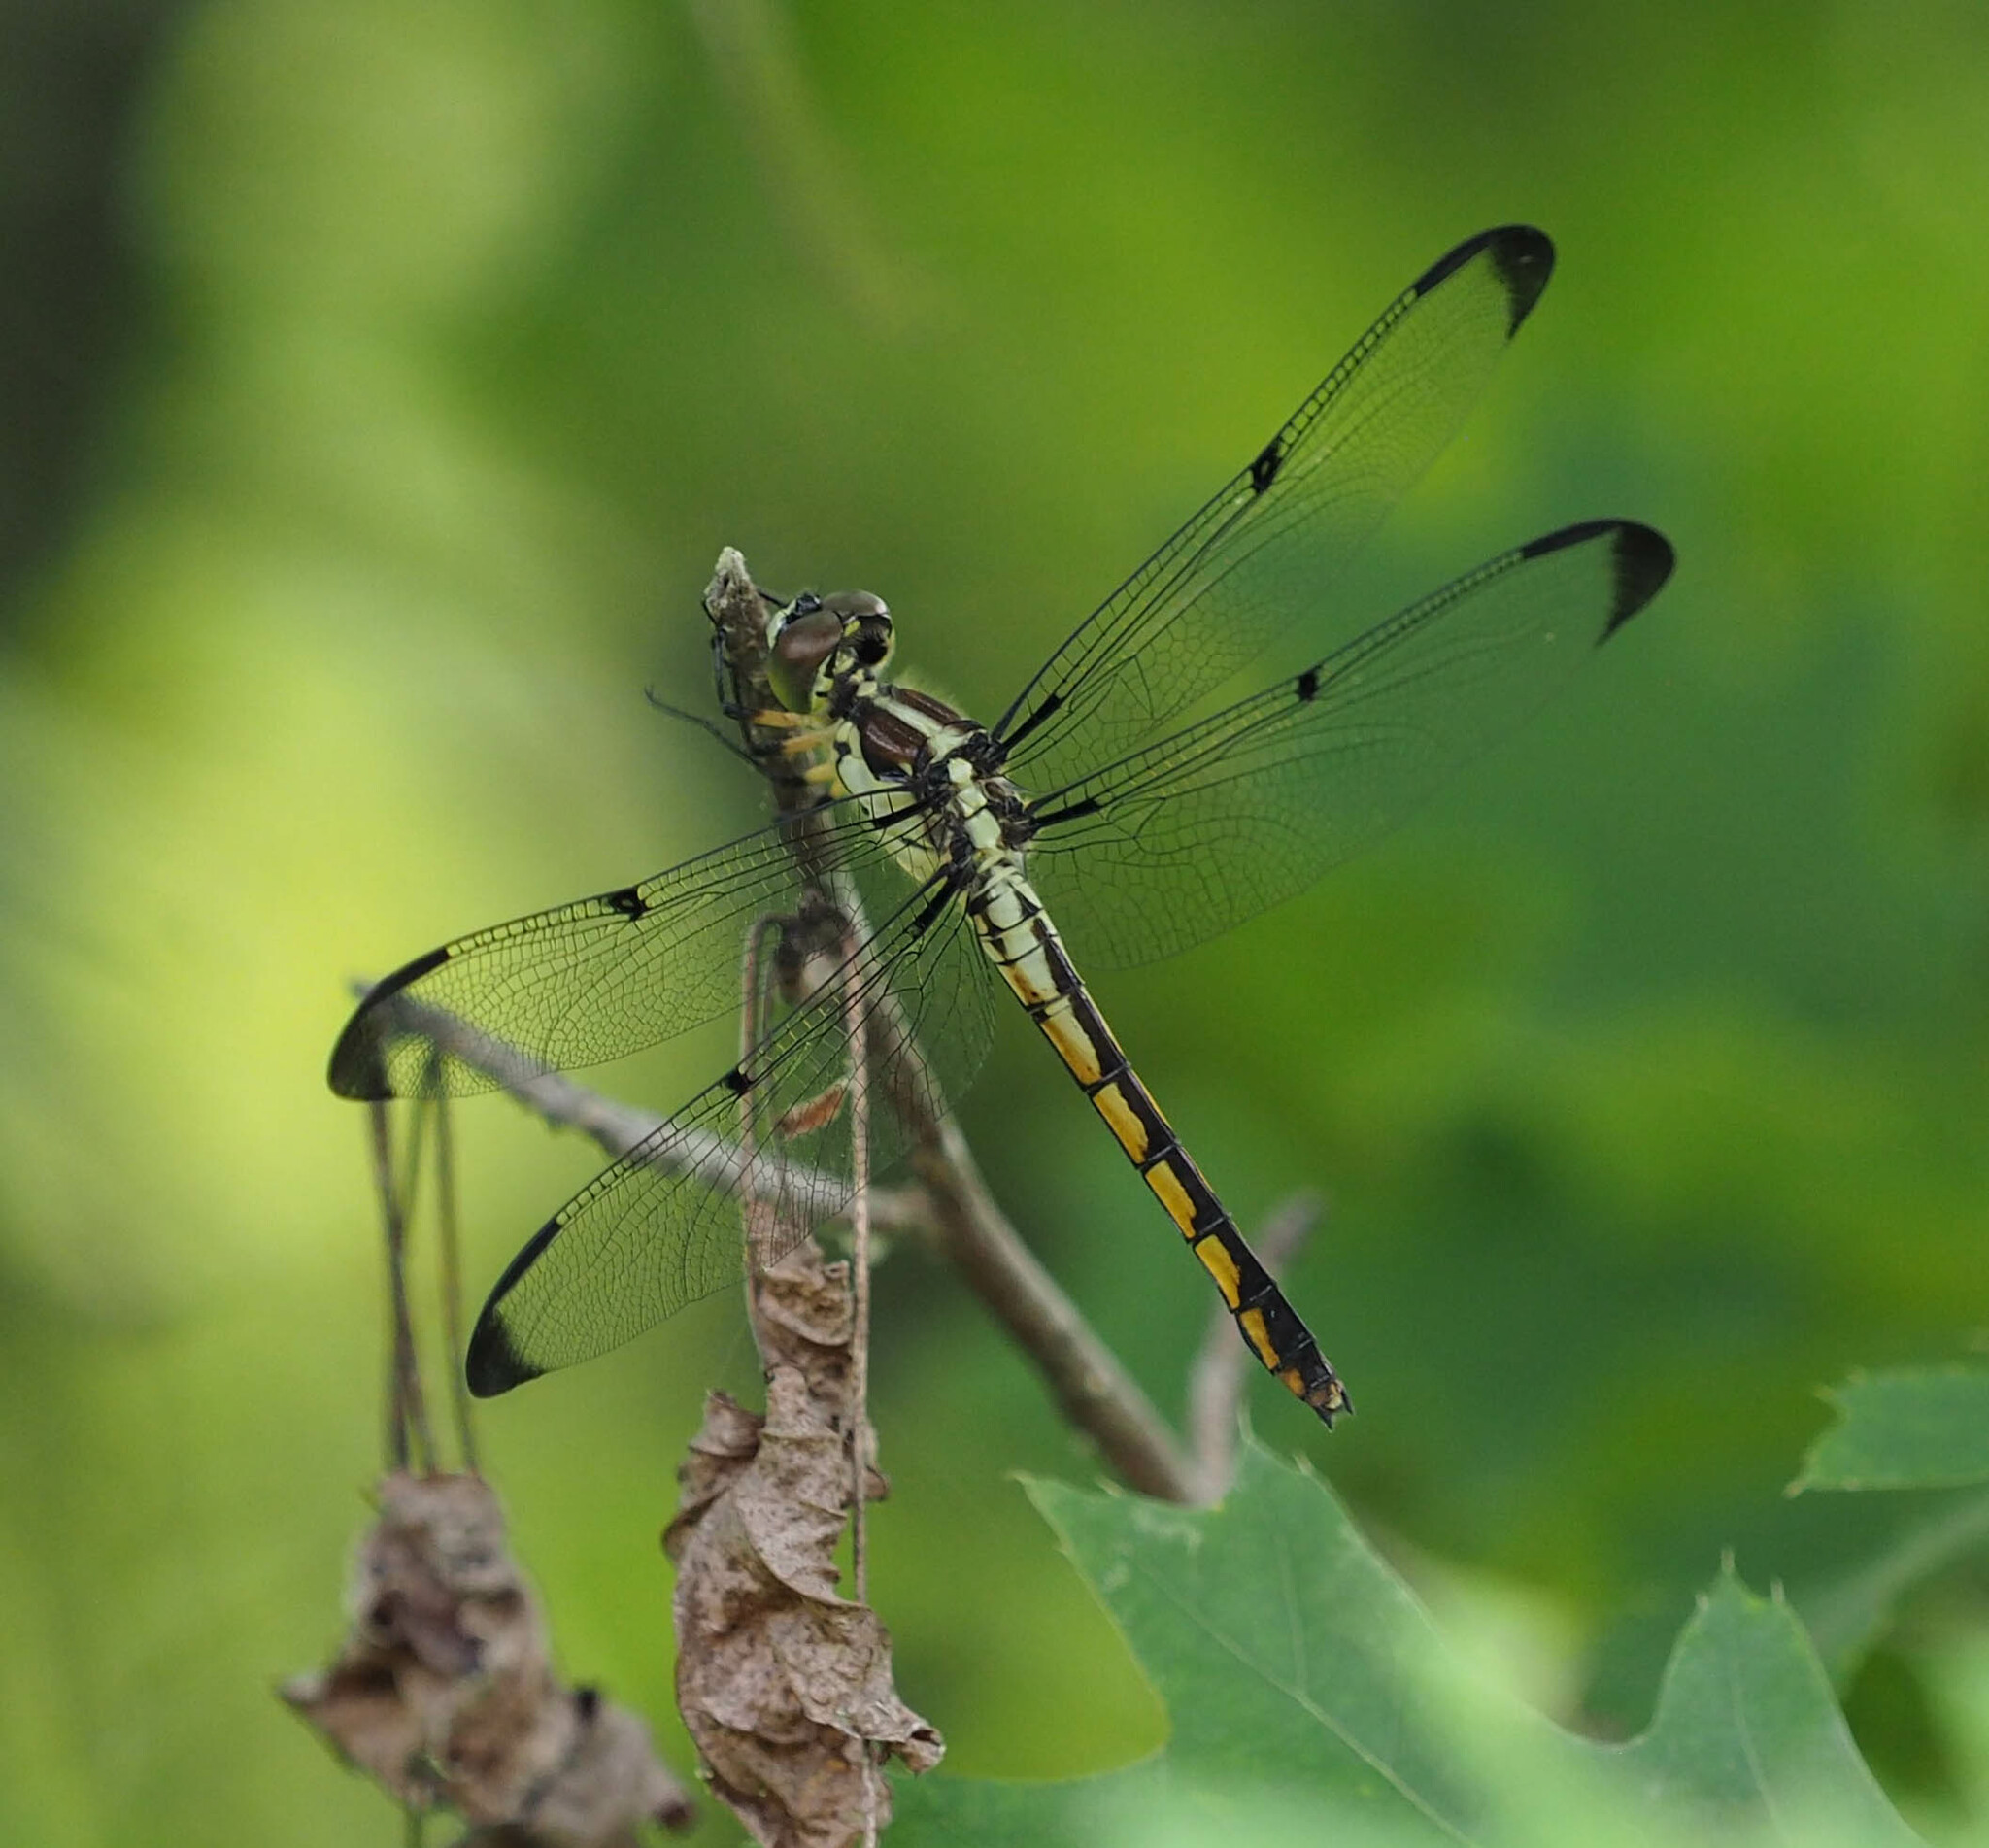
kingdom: Animalia
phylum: Arthropoda
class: Insecta
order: Odonata
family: Libellulidae
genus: Libellula
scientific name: Libellula vibrans
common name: Great blue skimmer
